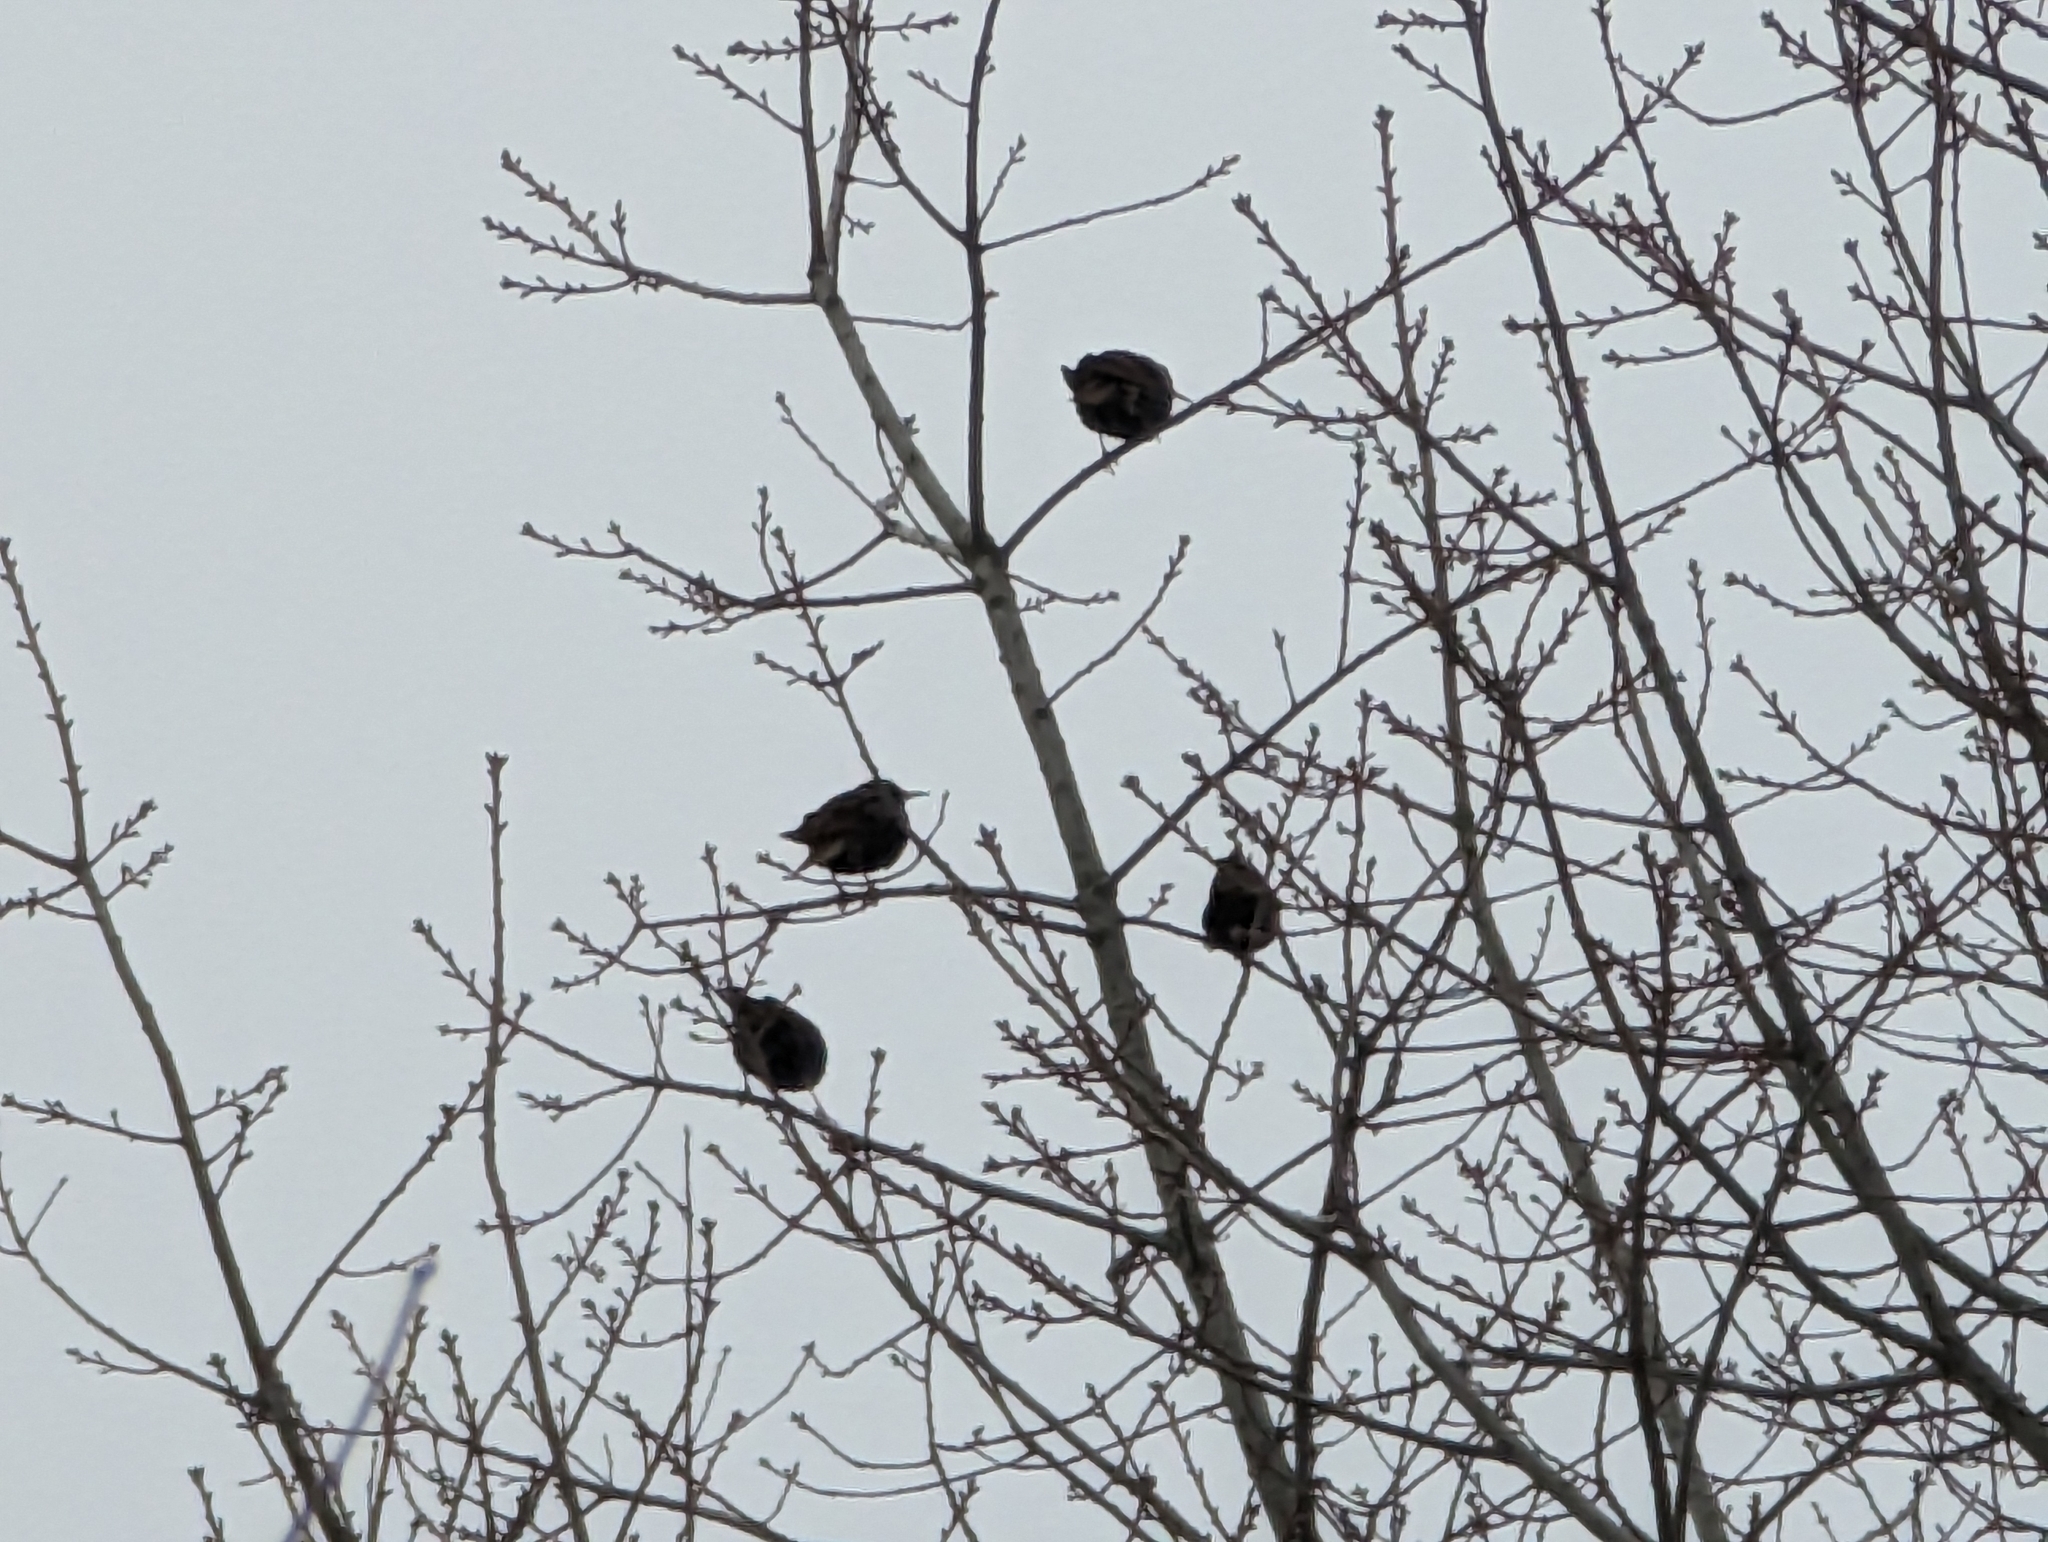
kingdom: Animalia
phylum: Chordata
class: Aves
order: Passeriformes
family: Sturnidae
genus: Sturnus
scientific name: Sturnus vulgaris
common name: Common starling
